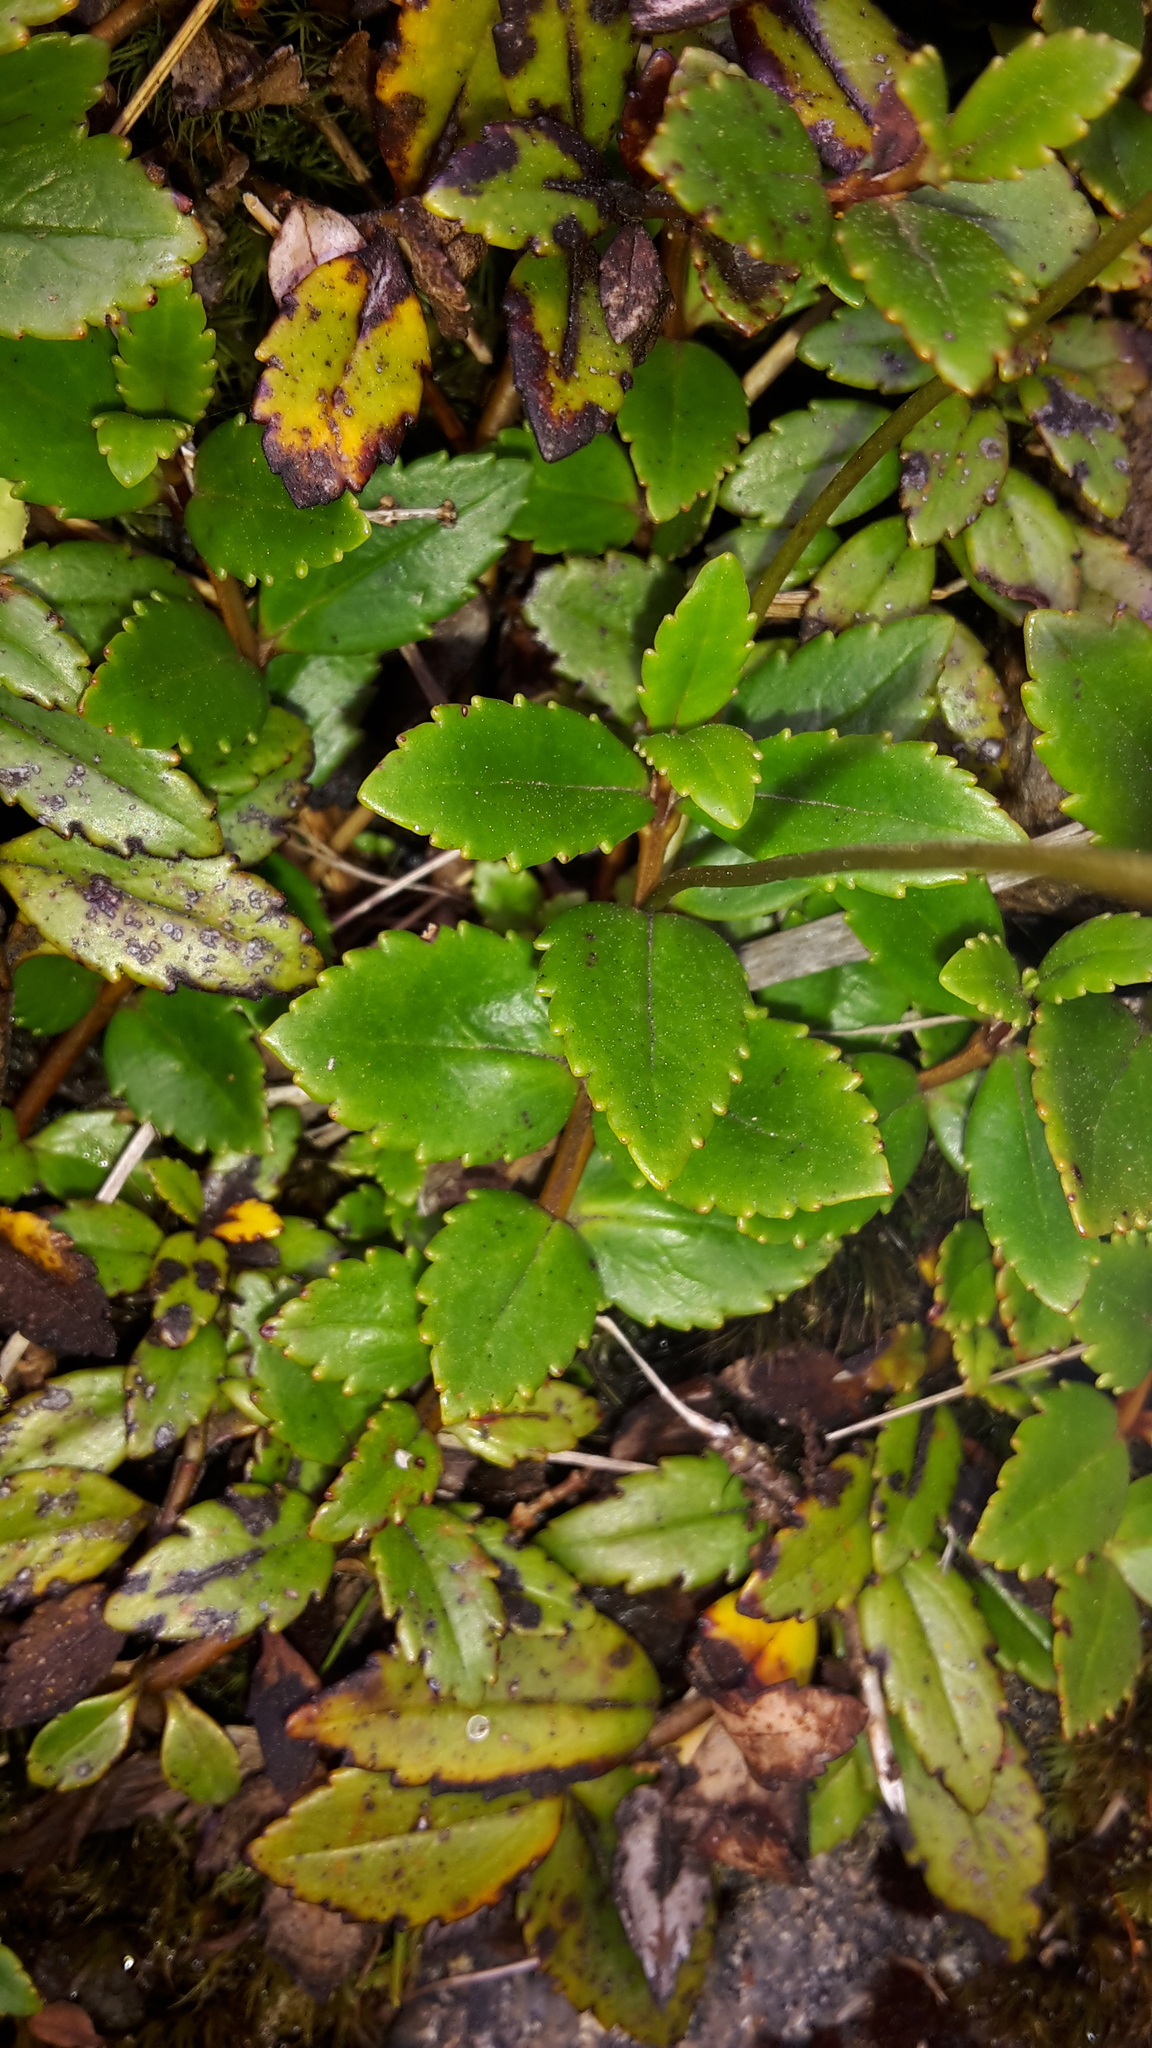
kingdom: Plantae
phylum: Tracheophyta
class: Magnoliopsida
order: Lamiales
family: Plantaginaceae
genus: Veronica
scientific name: Veronica lanceolata
